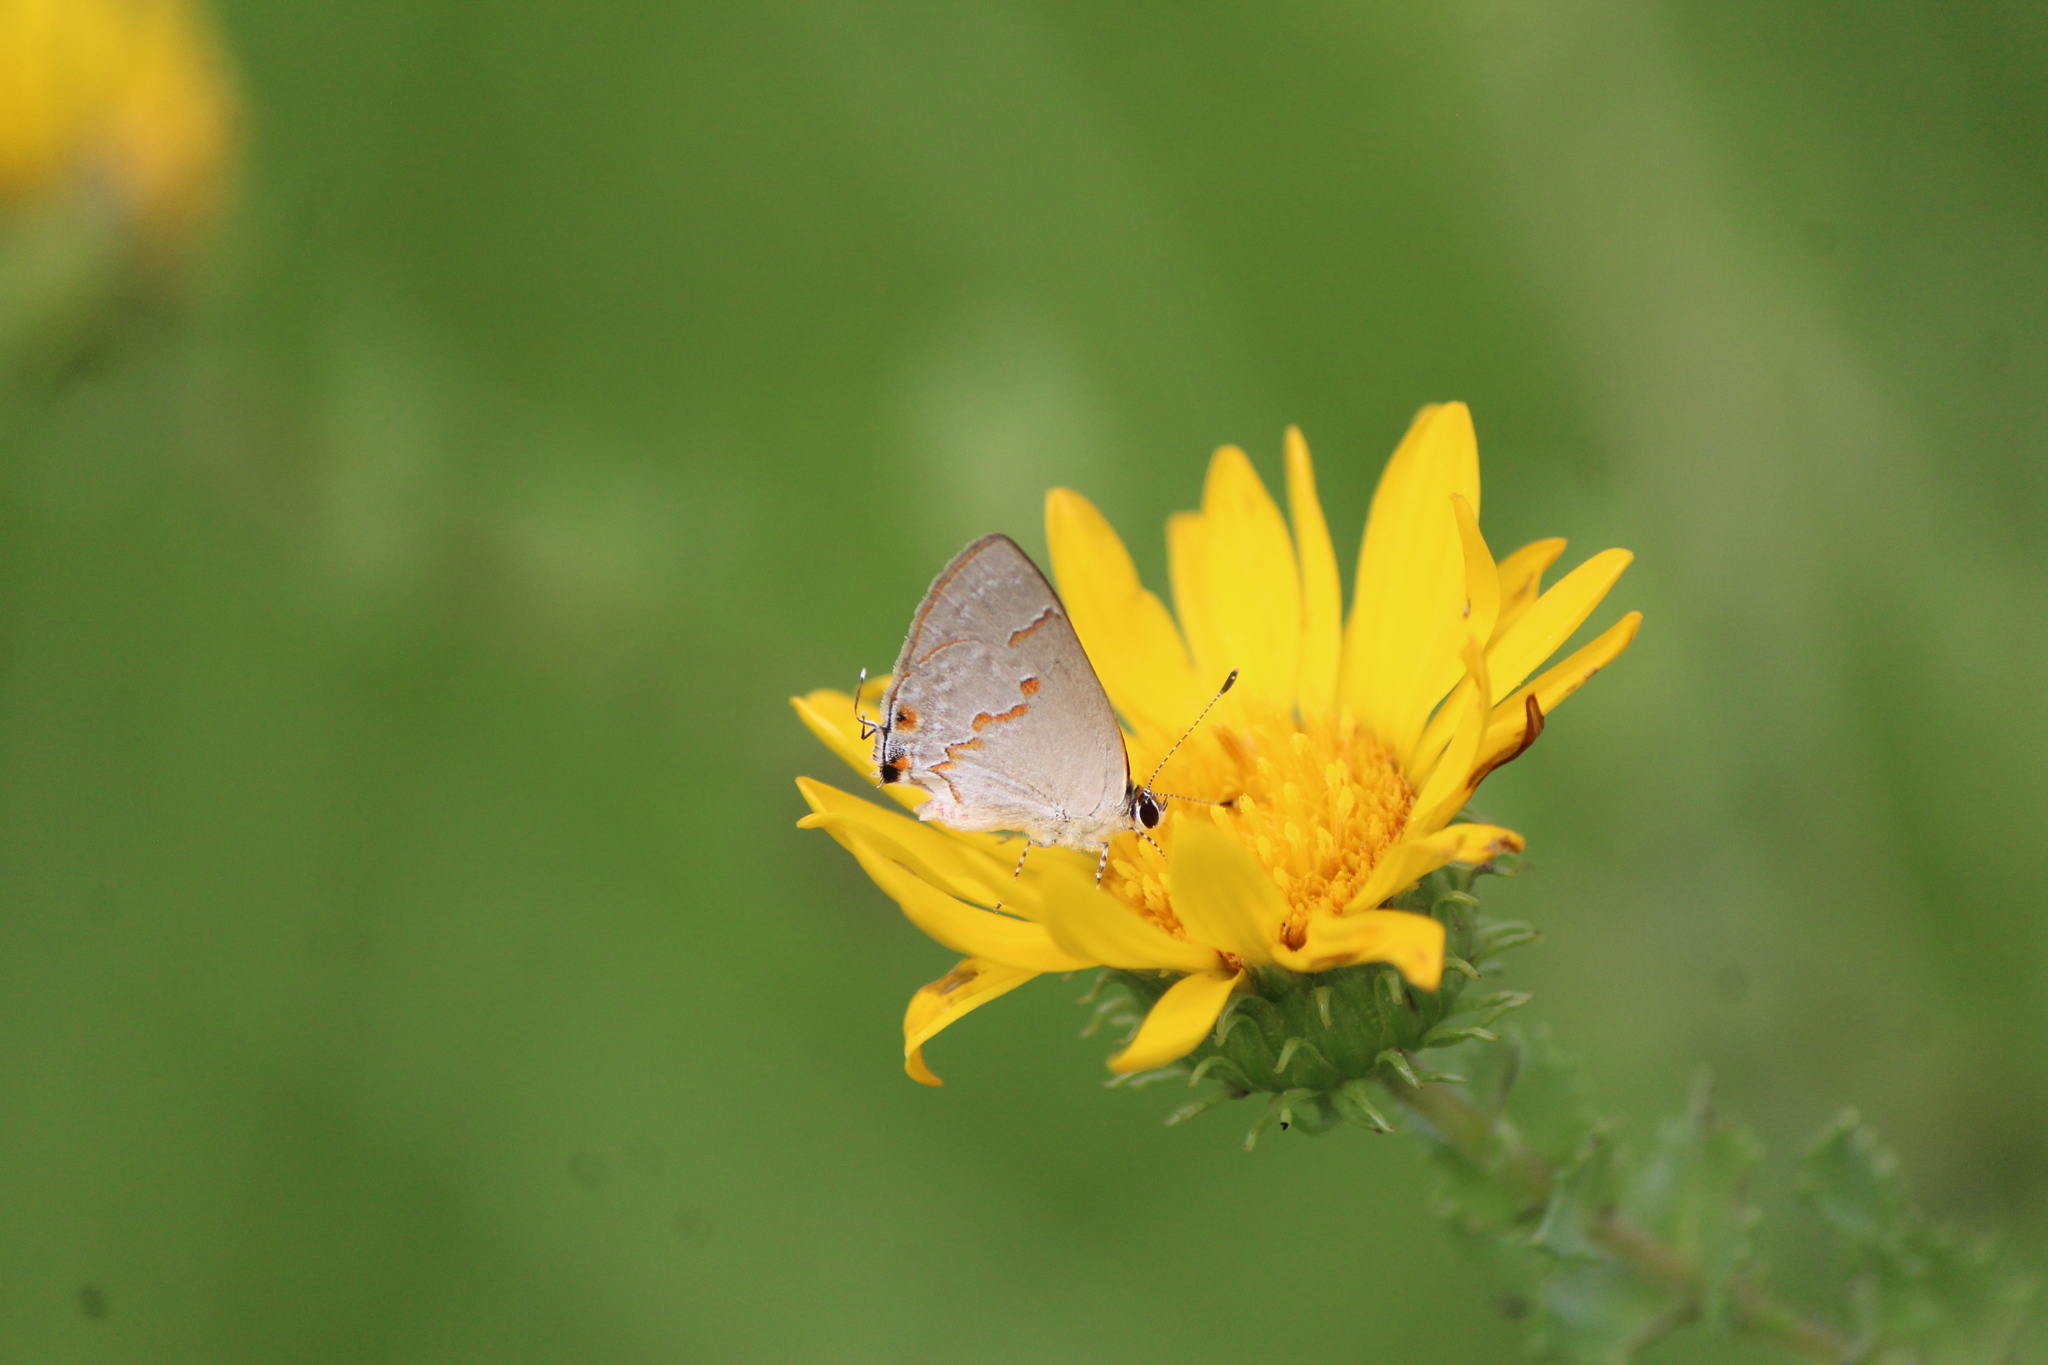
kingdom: Animalia
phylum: Arthropoda
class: Insecta
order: Lepidoptera
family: Lycaenidae
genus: Thecla
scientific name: Thecla azia
